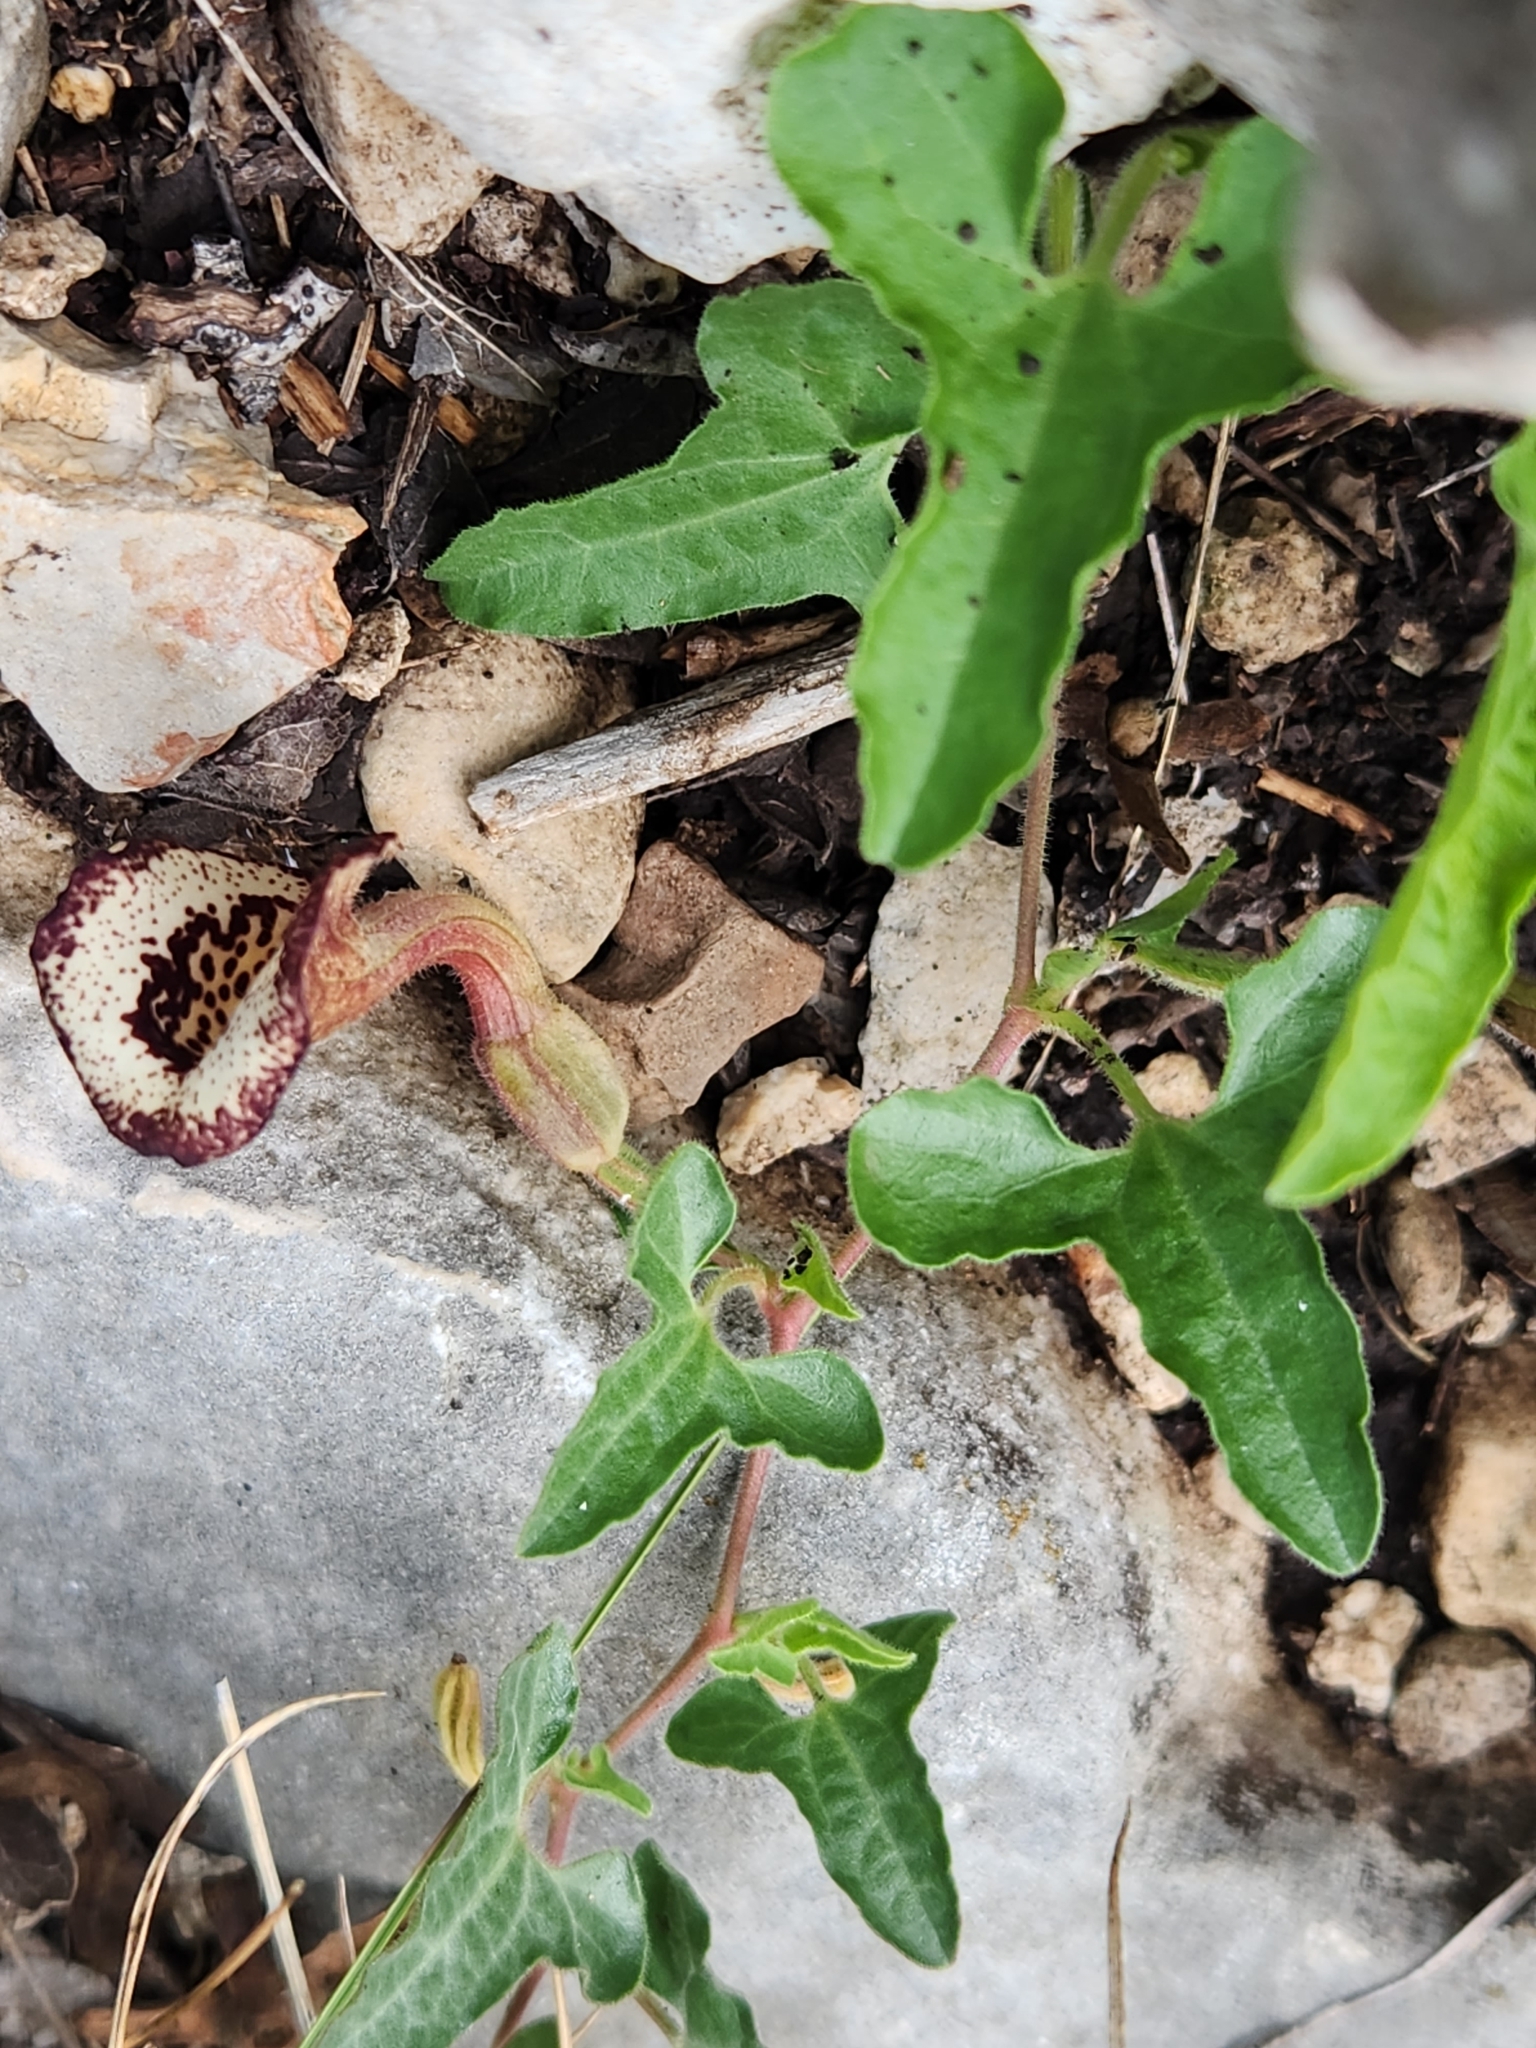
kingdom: Plantae
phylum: Tracheophyta
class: Magnoliopsida
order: Piperales
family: Aristolochiaceae
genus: Aristolochia
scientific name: Aristolochia coryi
